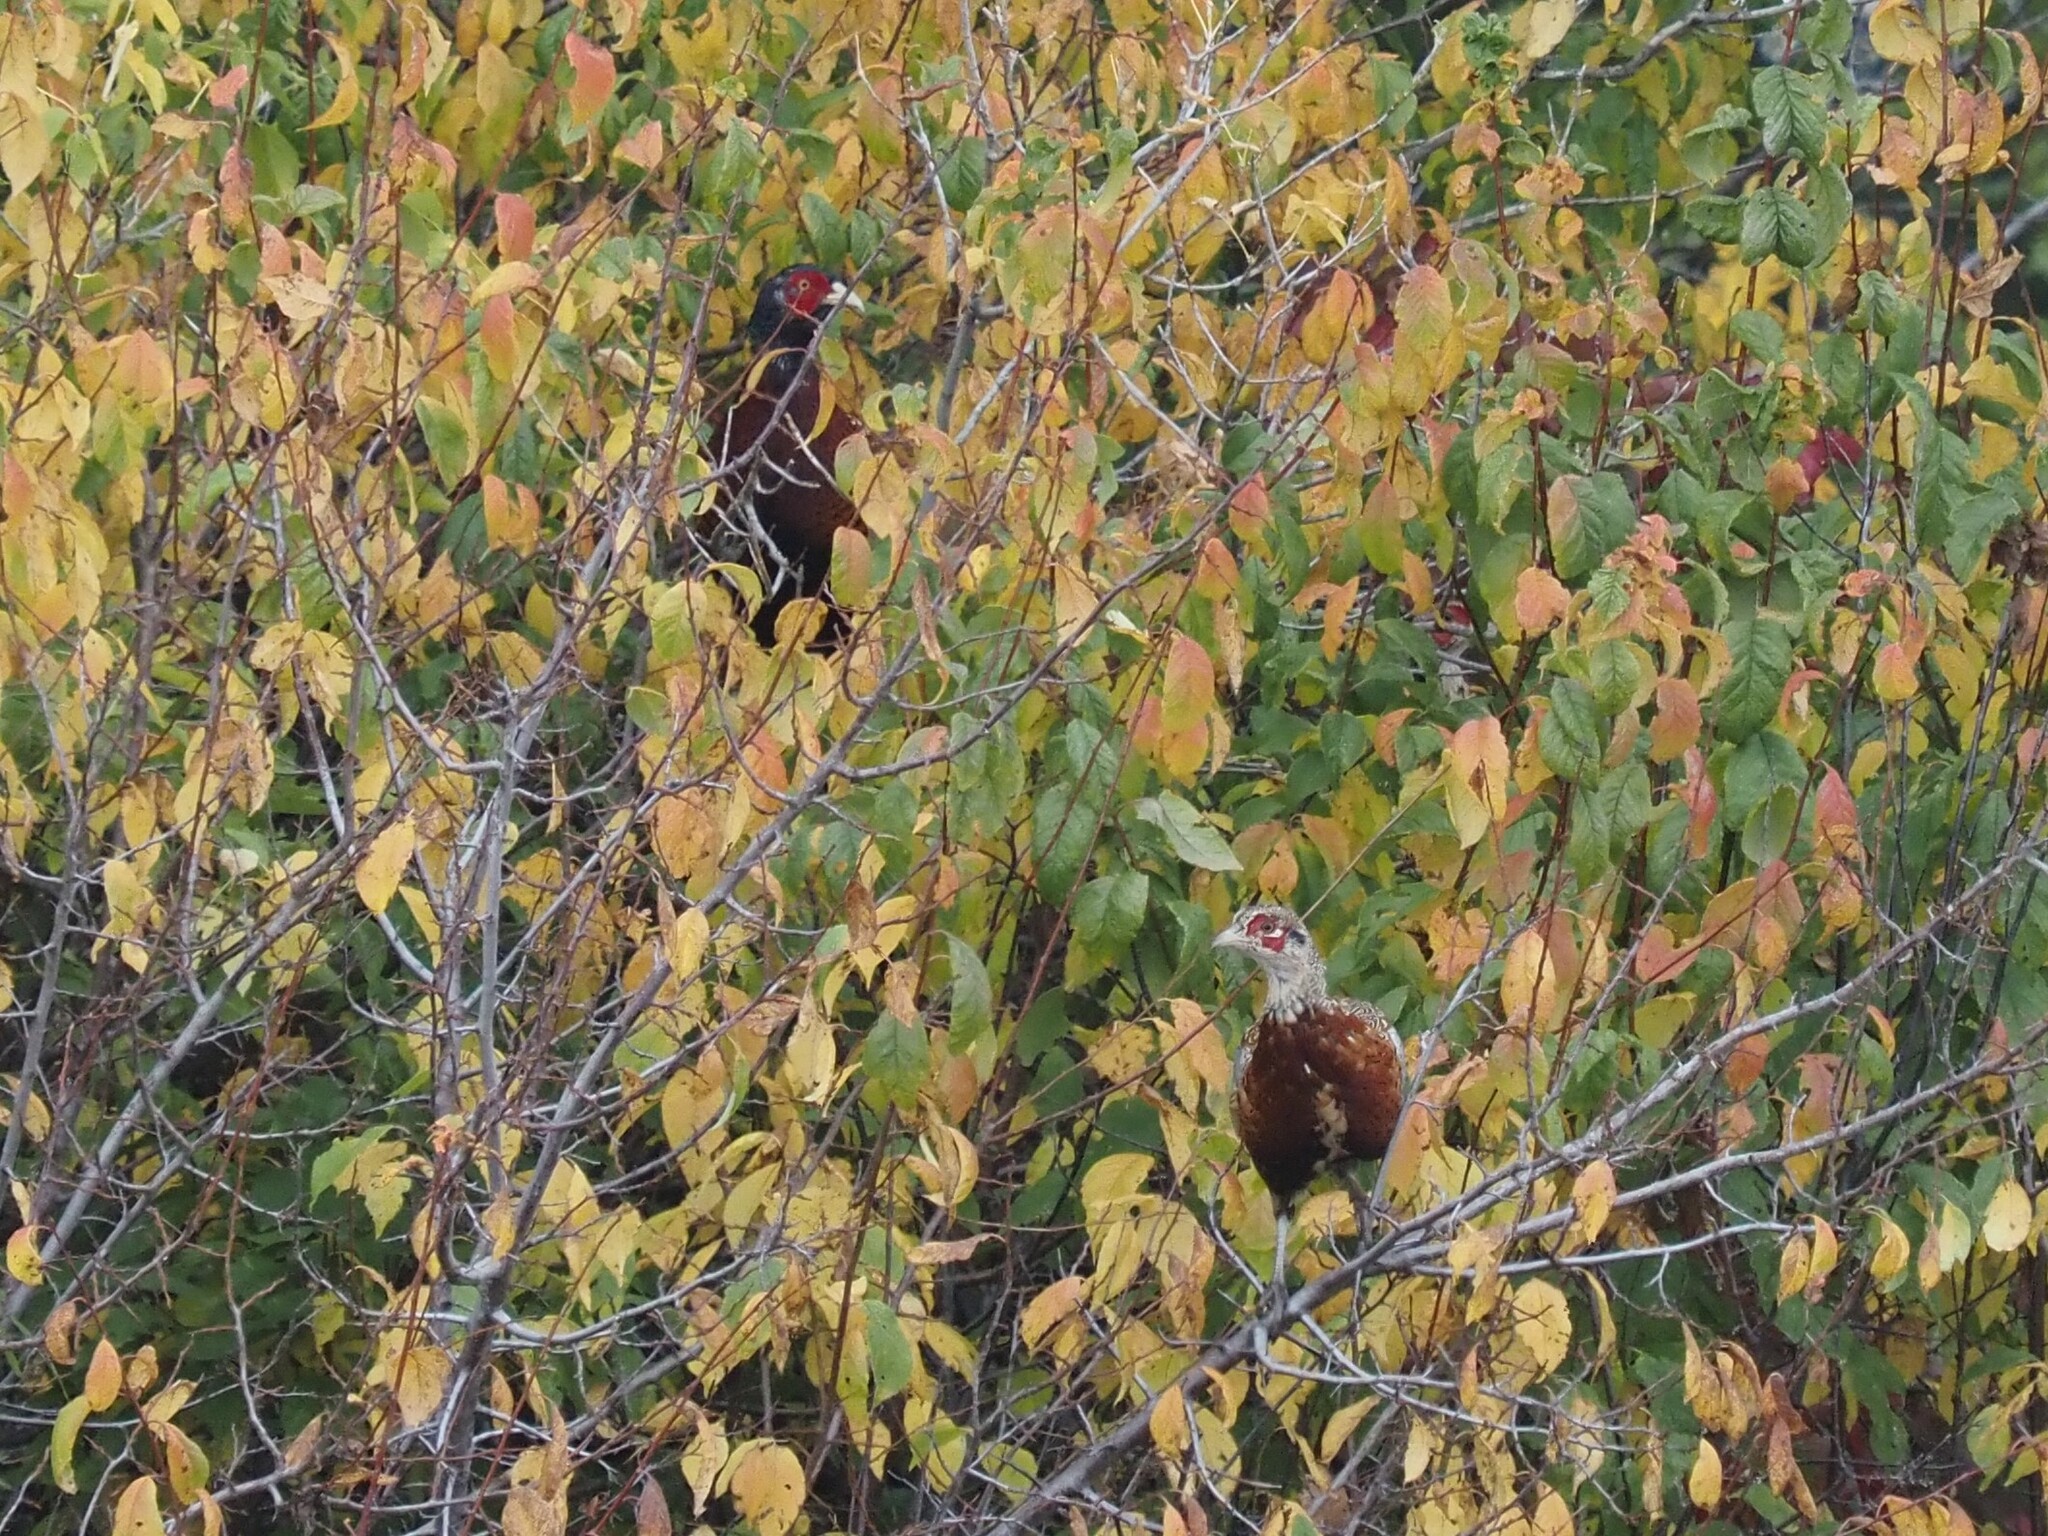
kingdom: Animalia
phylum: Chordata
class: Aves
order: Galliformes
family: Phasianidae
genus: Phasianus
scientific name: Phasianus colchicus
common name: Common pheasant
